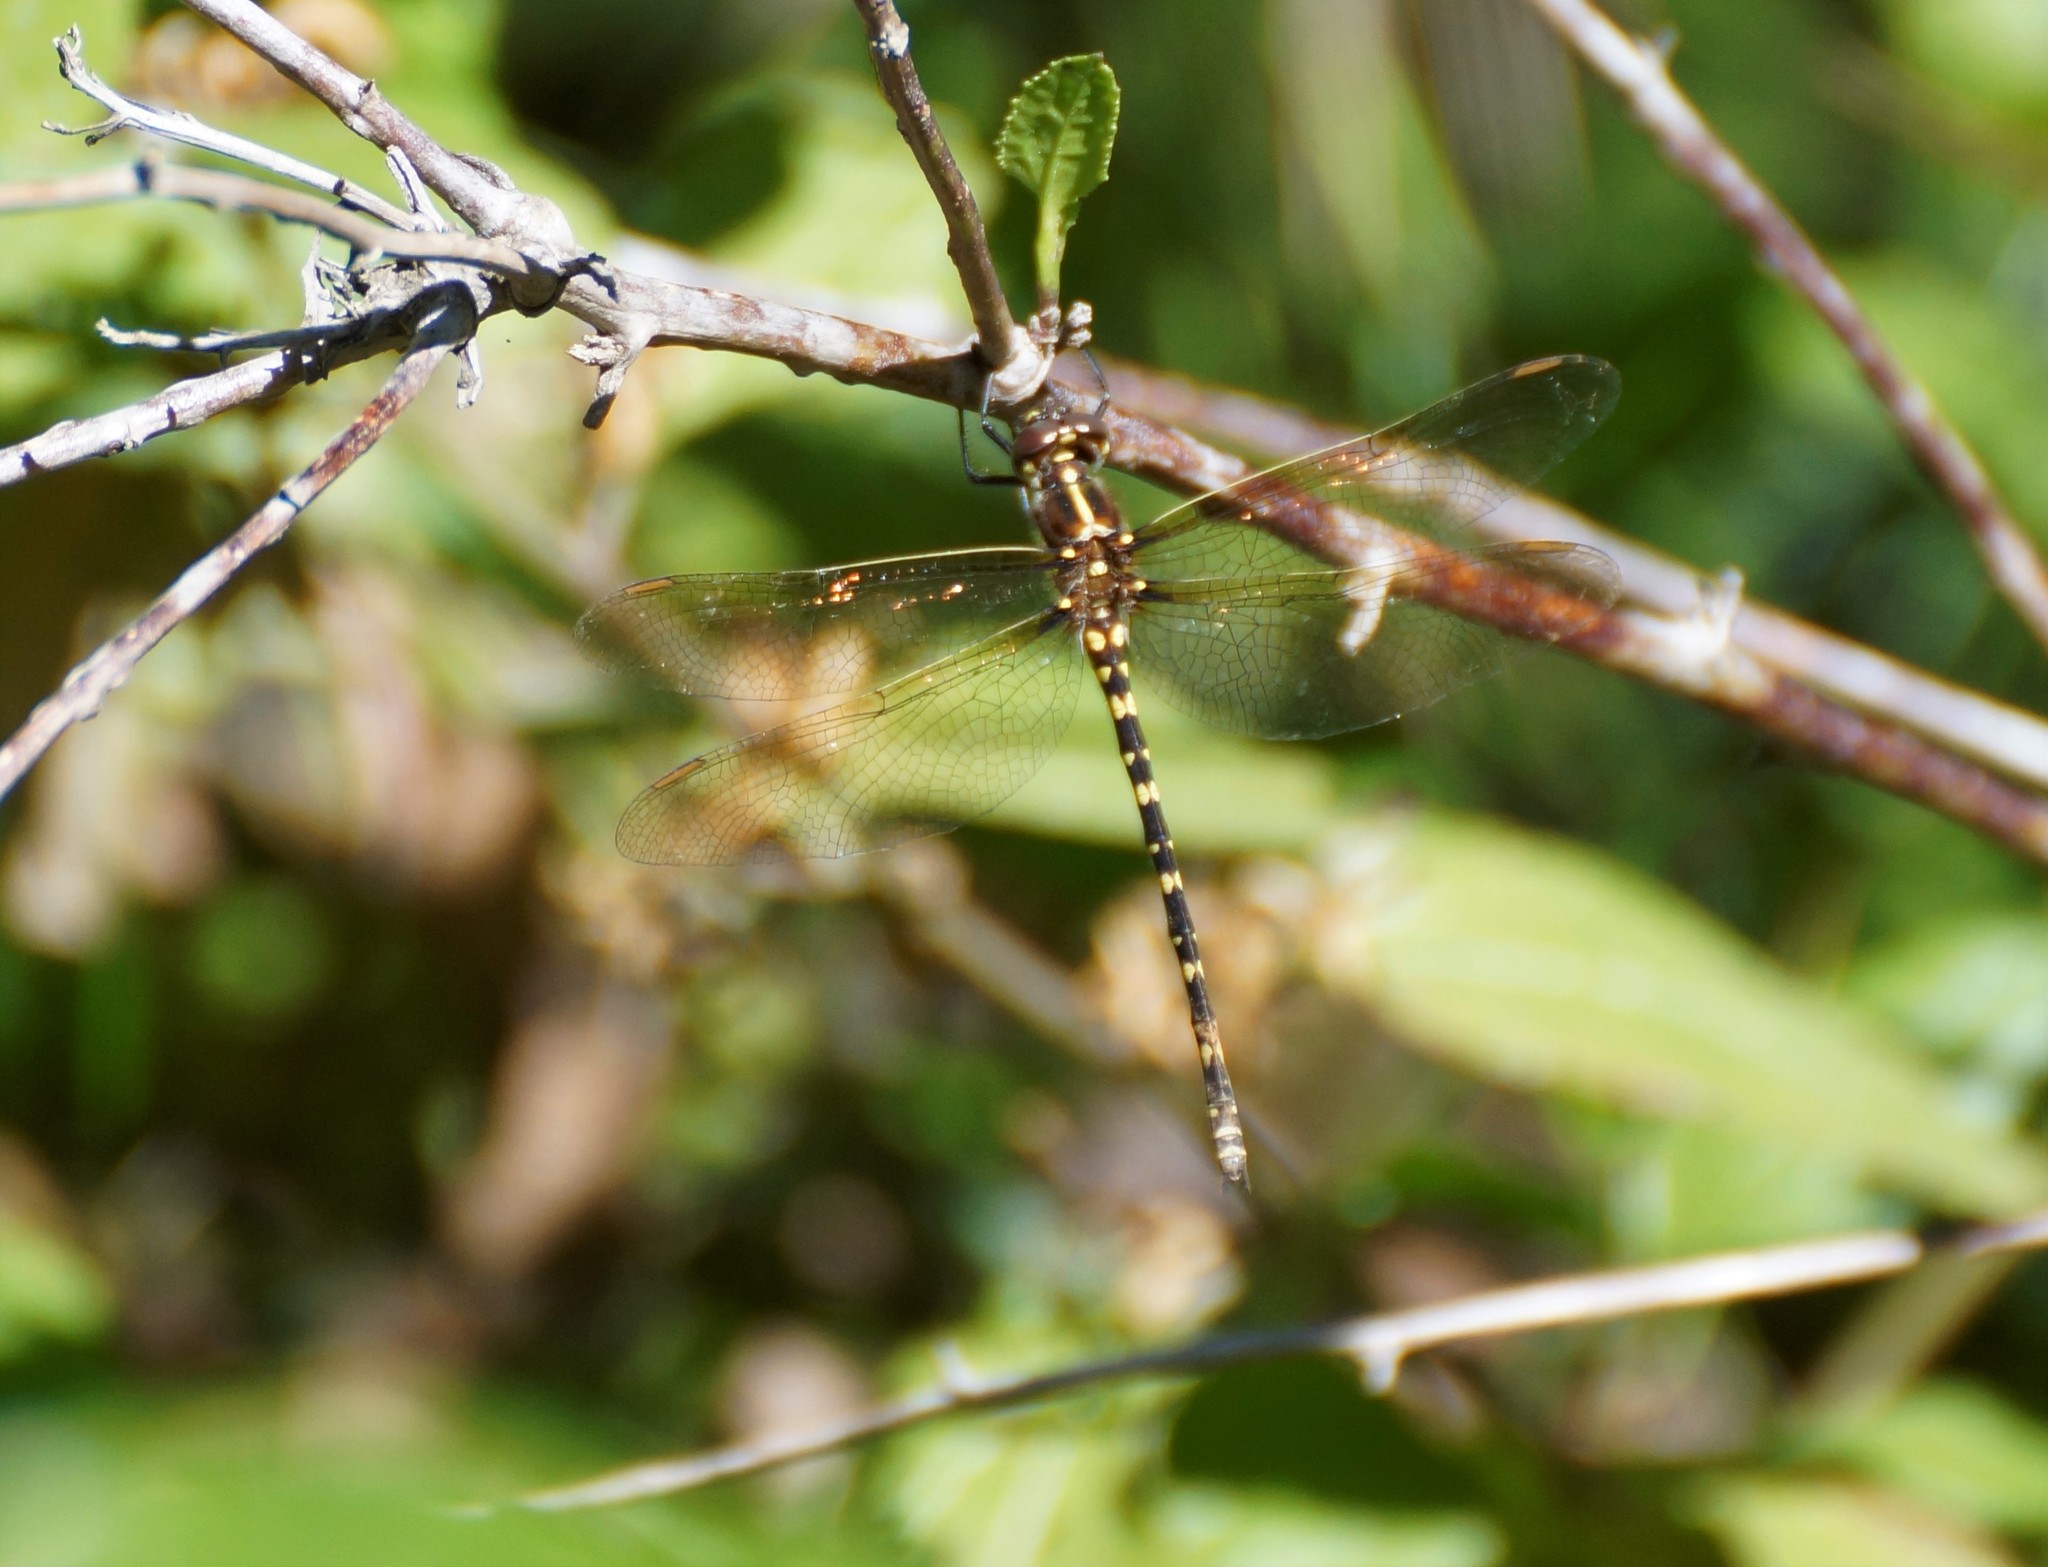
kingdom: Animalia
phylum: Arthropoda
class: Insecta
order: Odonata
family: Synthemistidae
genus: Synthemis
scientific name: Synthemis eustalacta
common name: Swamp tigertail
